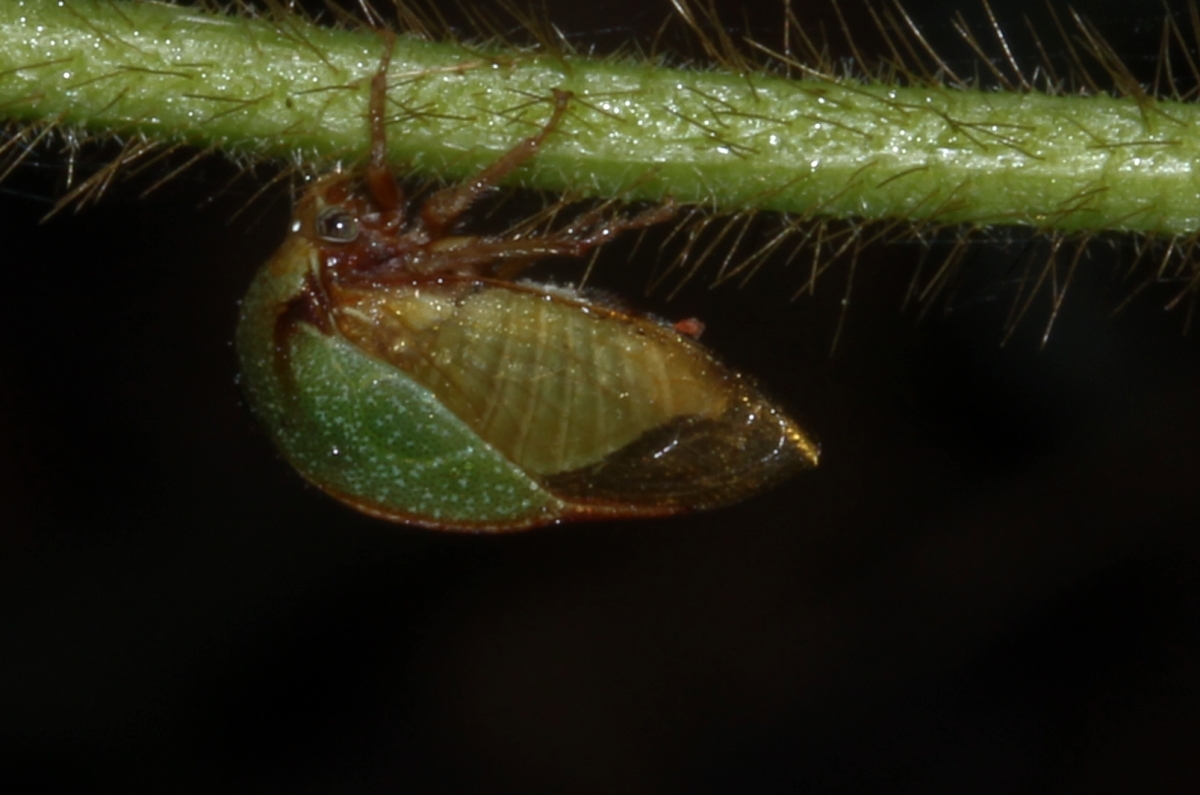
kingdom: Animalia
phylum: Arthropoda
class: Insecta
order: Hemiptera
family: Membracidae
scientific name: Membracidae
